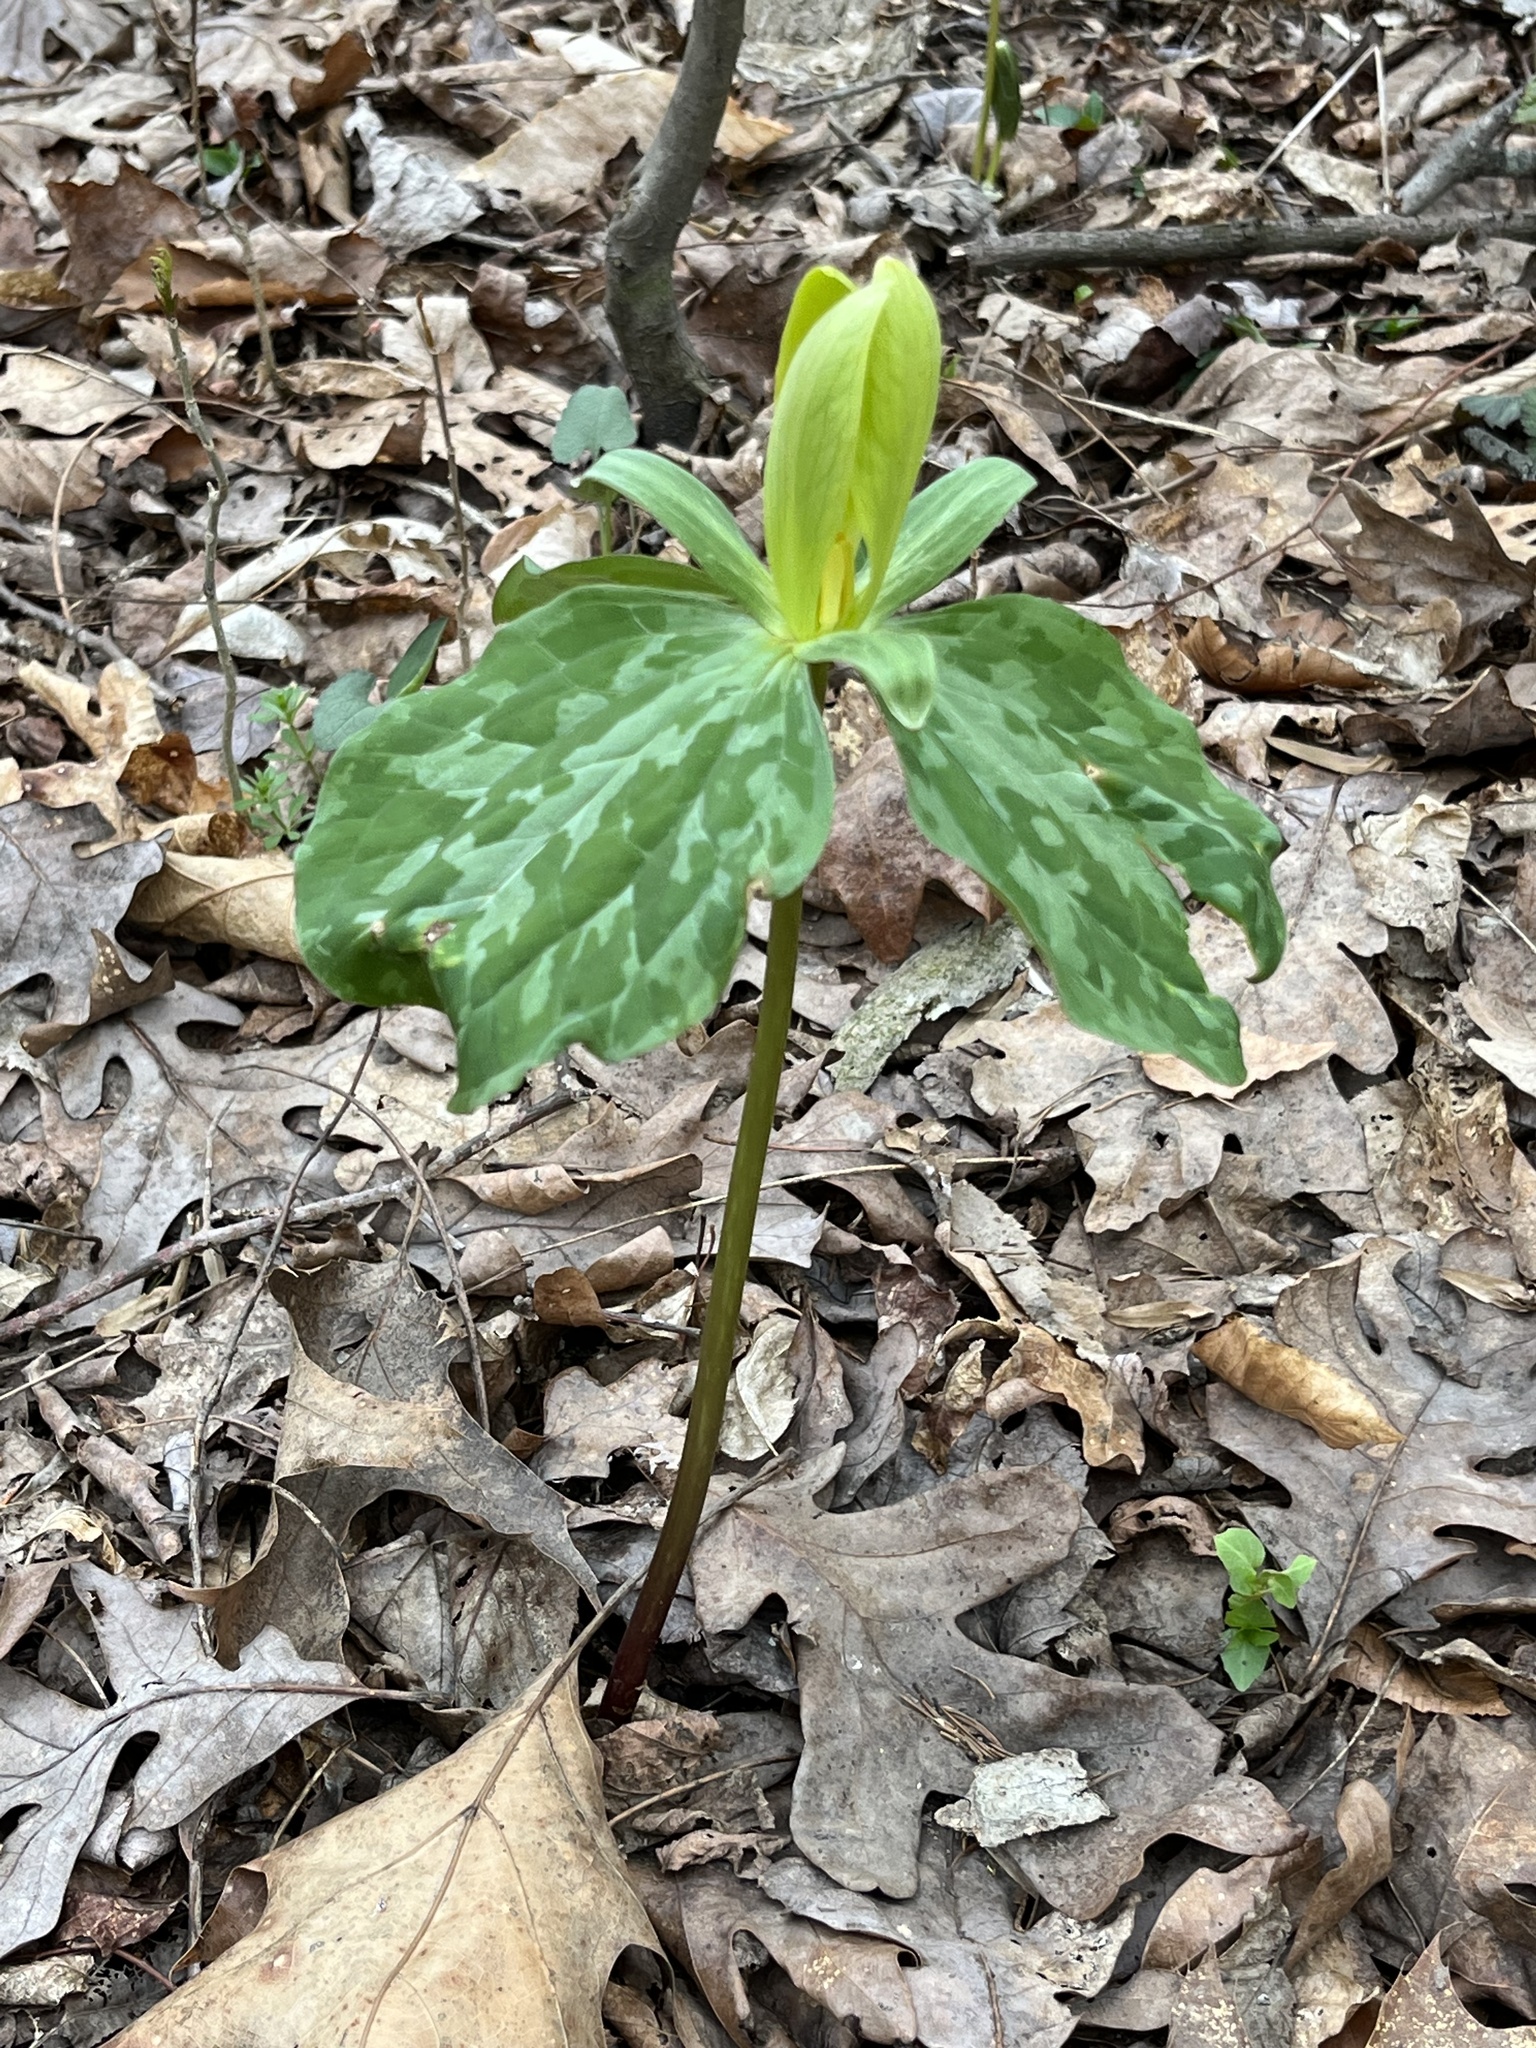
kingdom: Plantae
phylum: Tracheophyta
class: Liliopsida
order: Liliales
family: Melanthiaceae
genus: Trillium
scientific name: Trillium luteum
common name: Wax trillium
